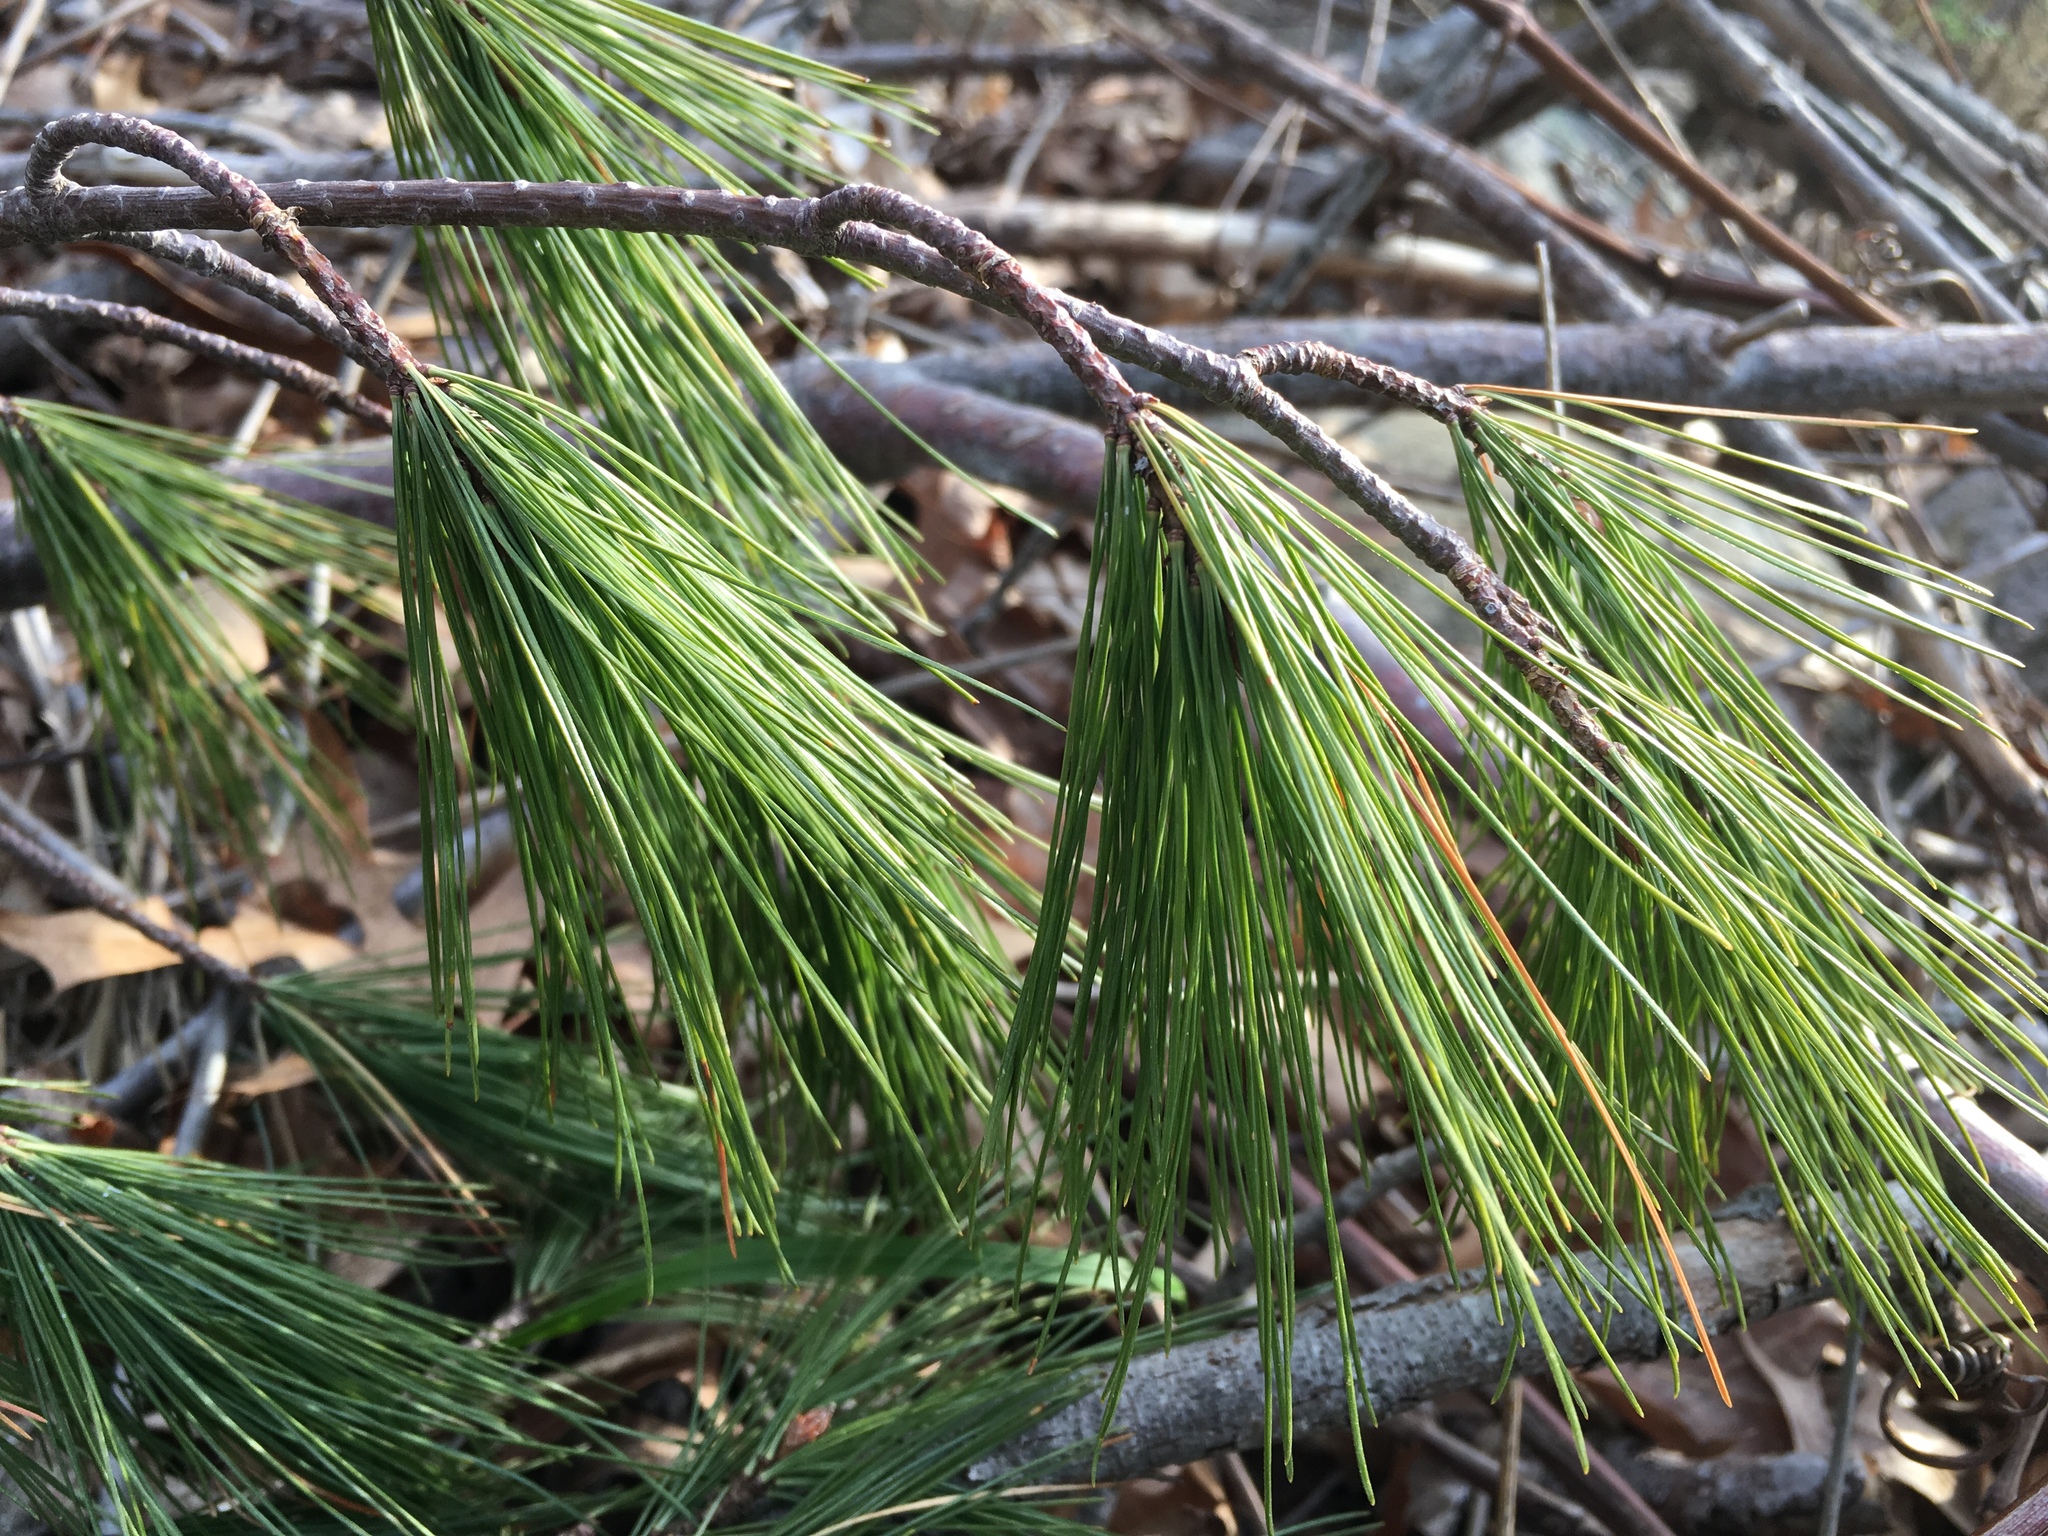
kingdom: Plantae
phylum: Tracheophyta
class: Pinopsida
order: Pinales
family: Pinaceae
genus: Pinus
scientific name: Pinus strobus
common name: Weymouth pine
